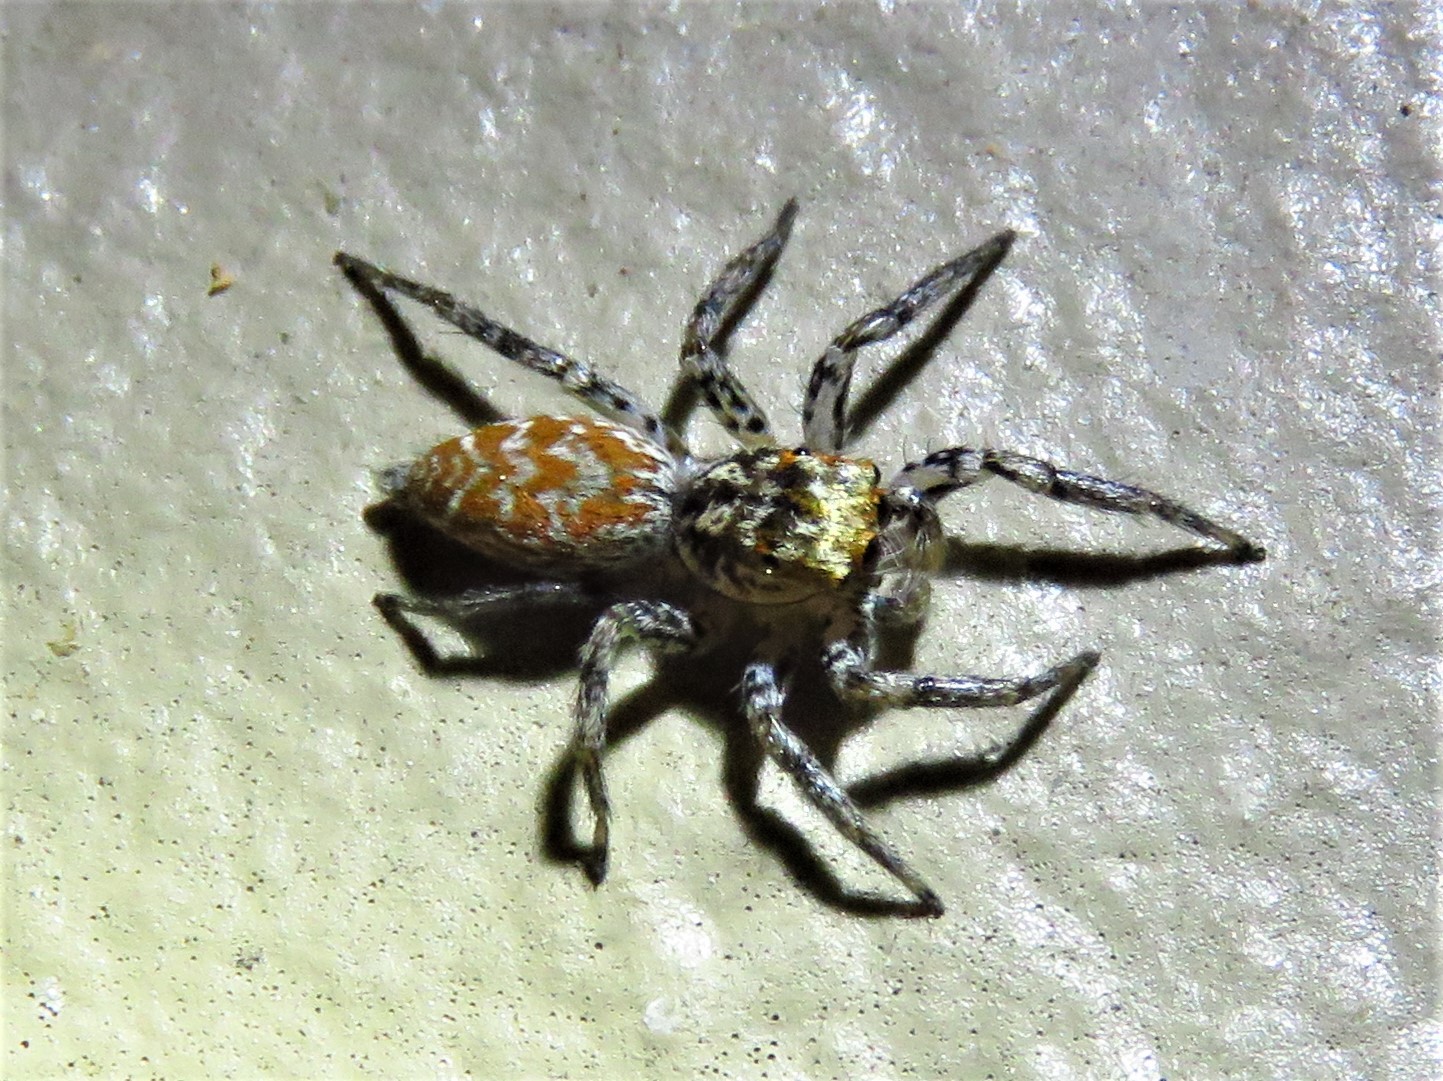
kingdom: Animalia
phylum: Arthropoda
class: Arachnida
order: Araneae
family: Salticidae
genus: Maevia
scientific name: Maevia inclemens
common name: Dimorphic jumper
